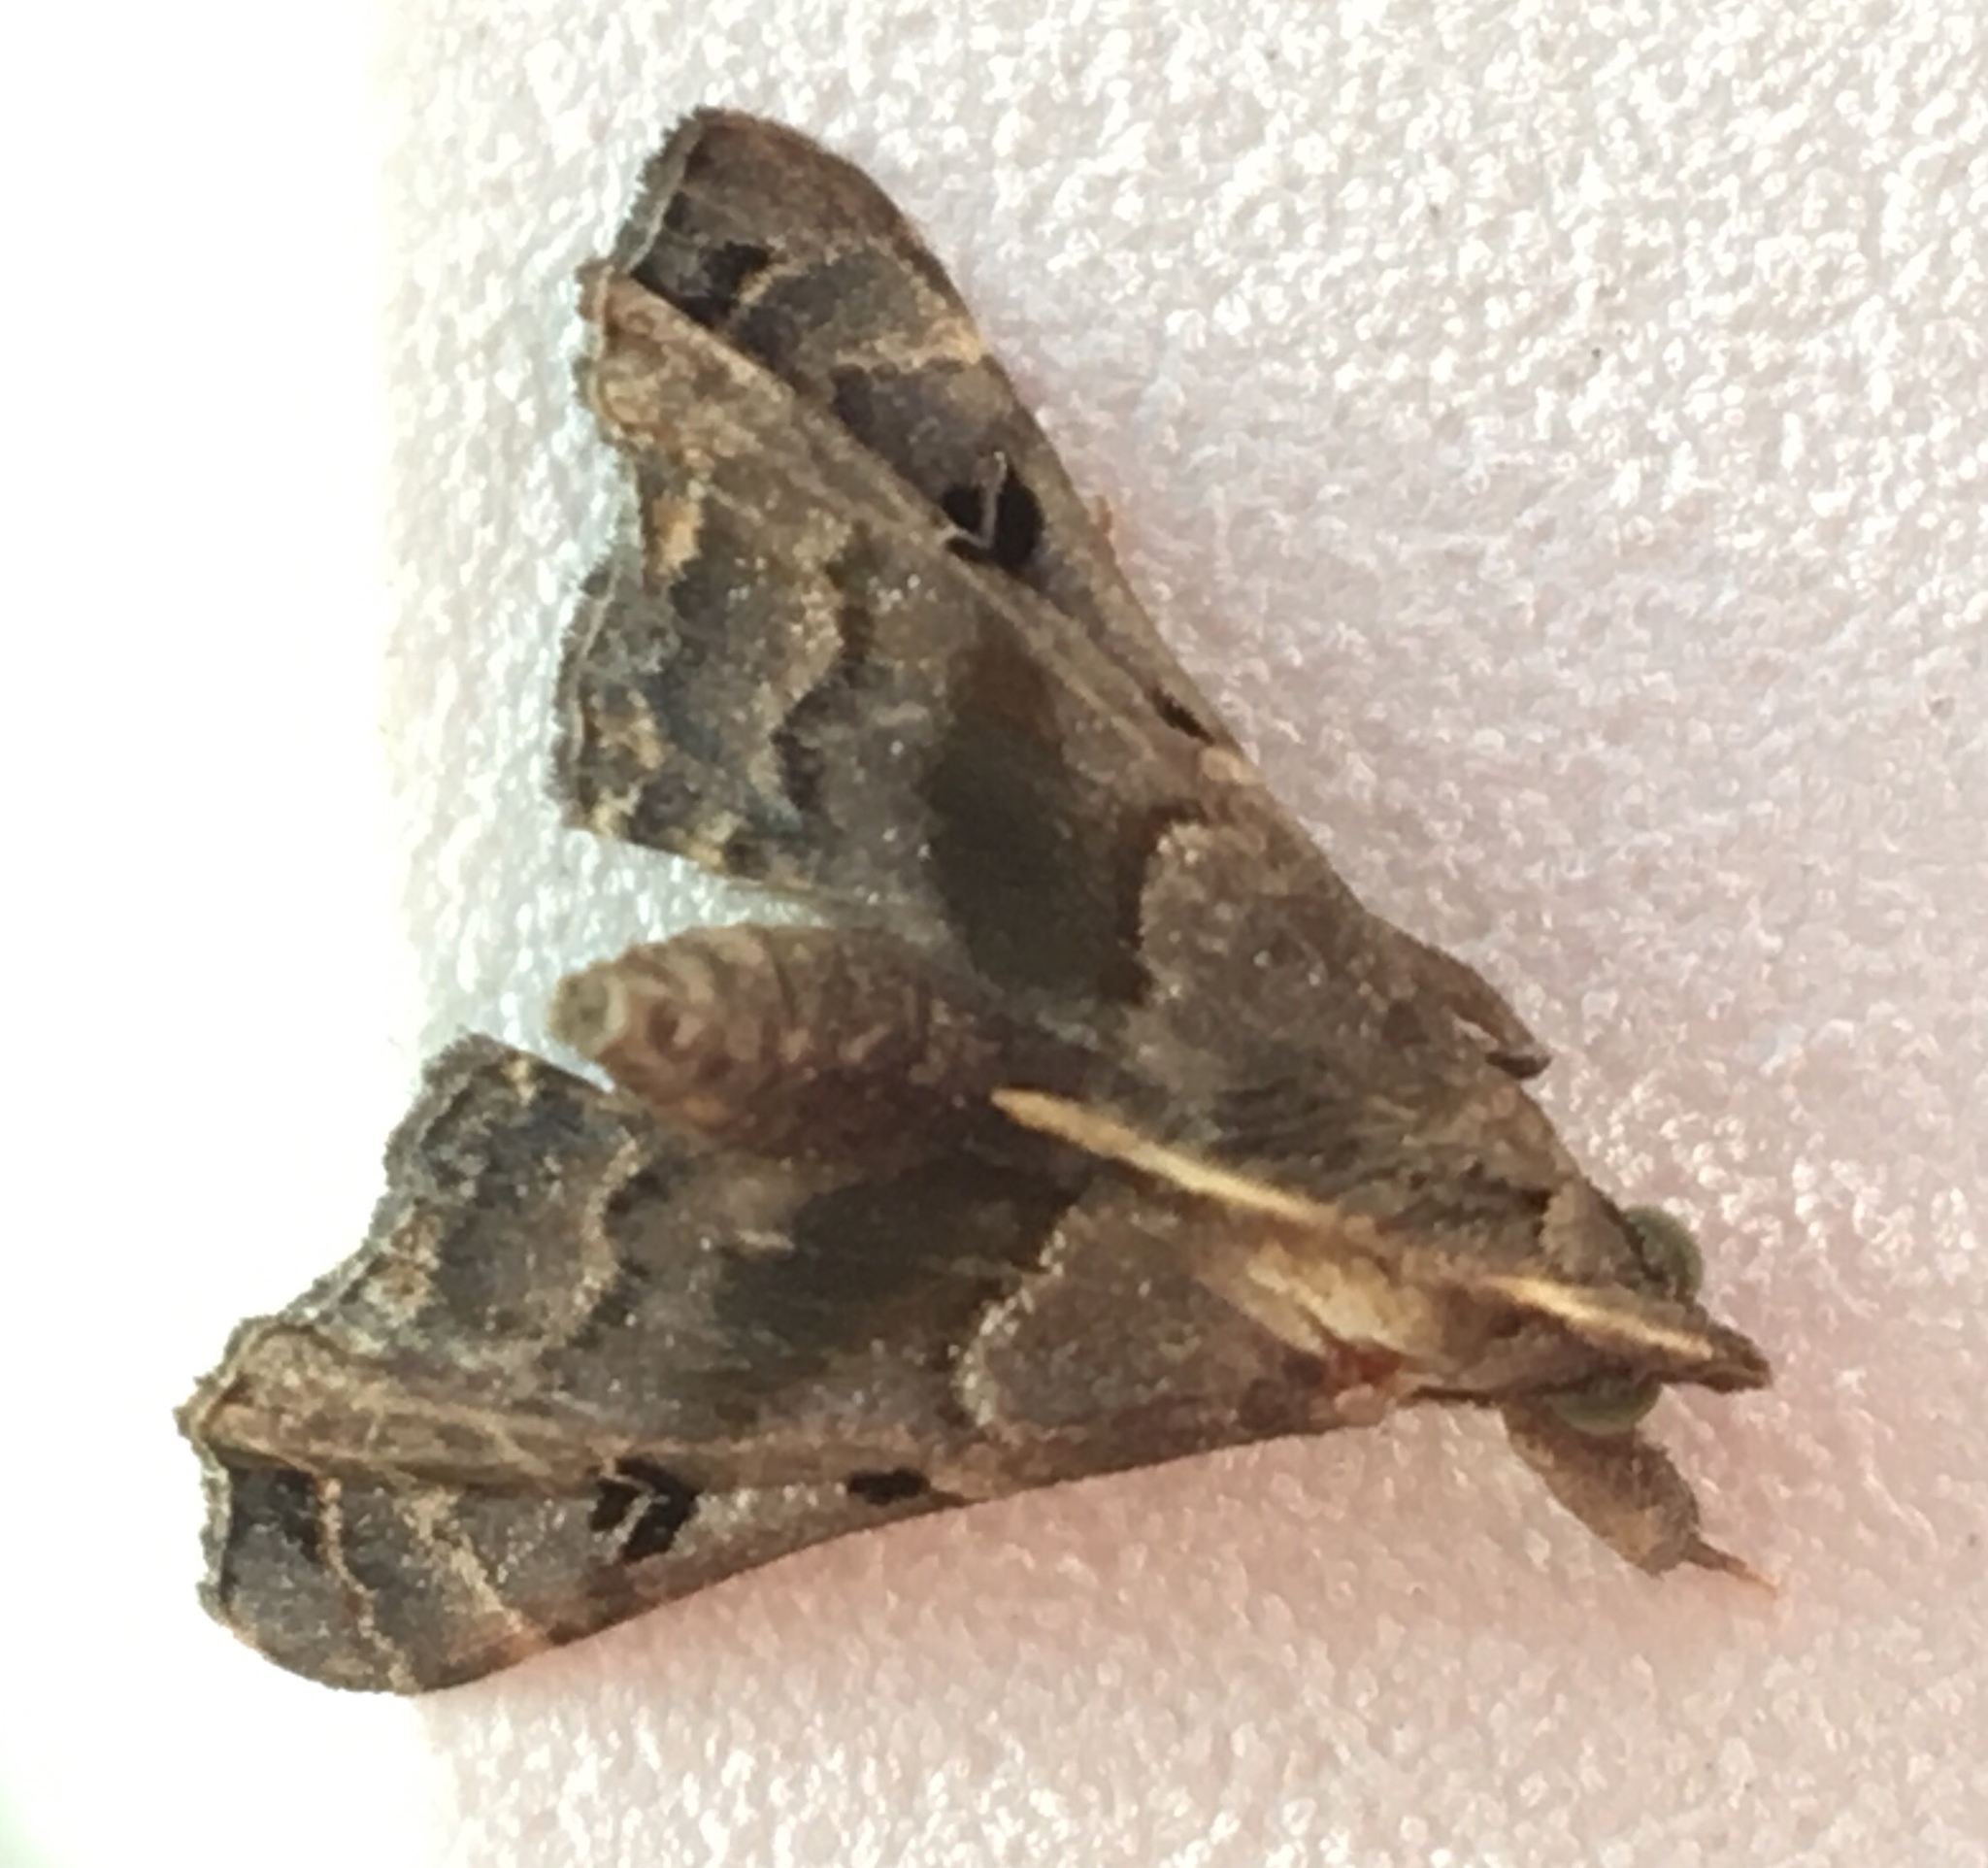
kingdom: Animalia
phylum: Arthropoda
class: Insecta
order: Lepidoptera
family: Erebidae
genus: Palthis
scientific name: Palthis asopialis
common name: Faint-spotted palthis moth
